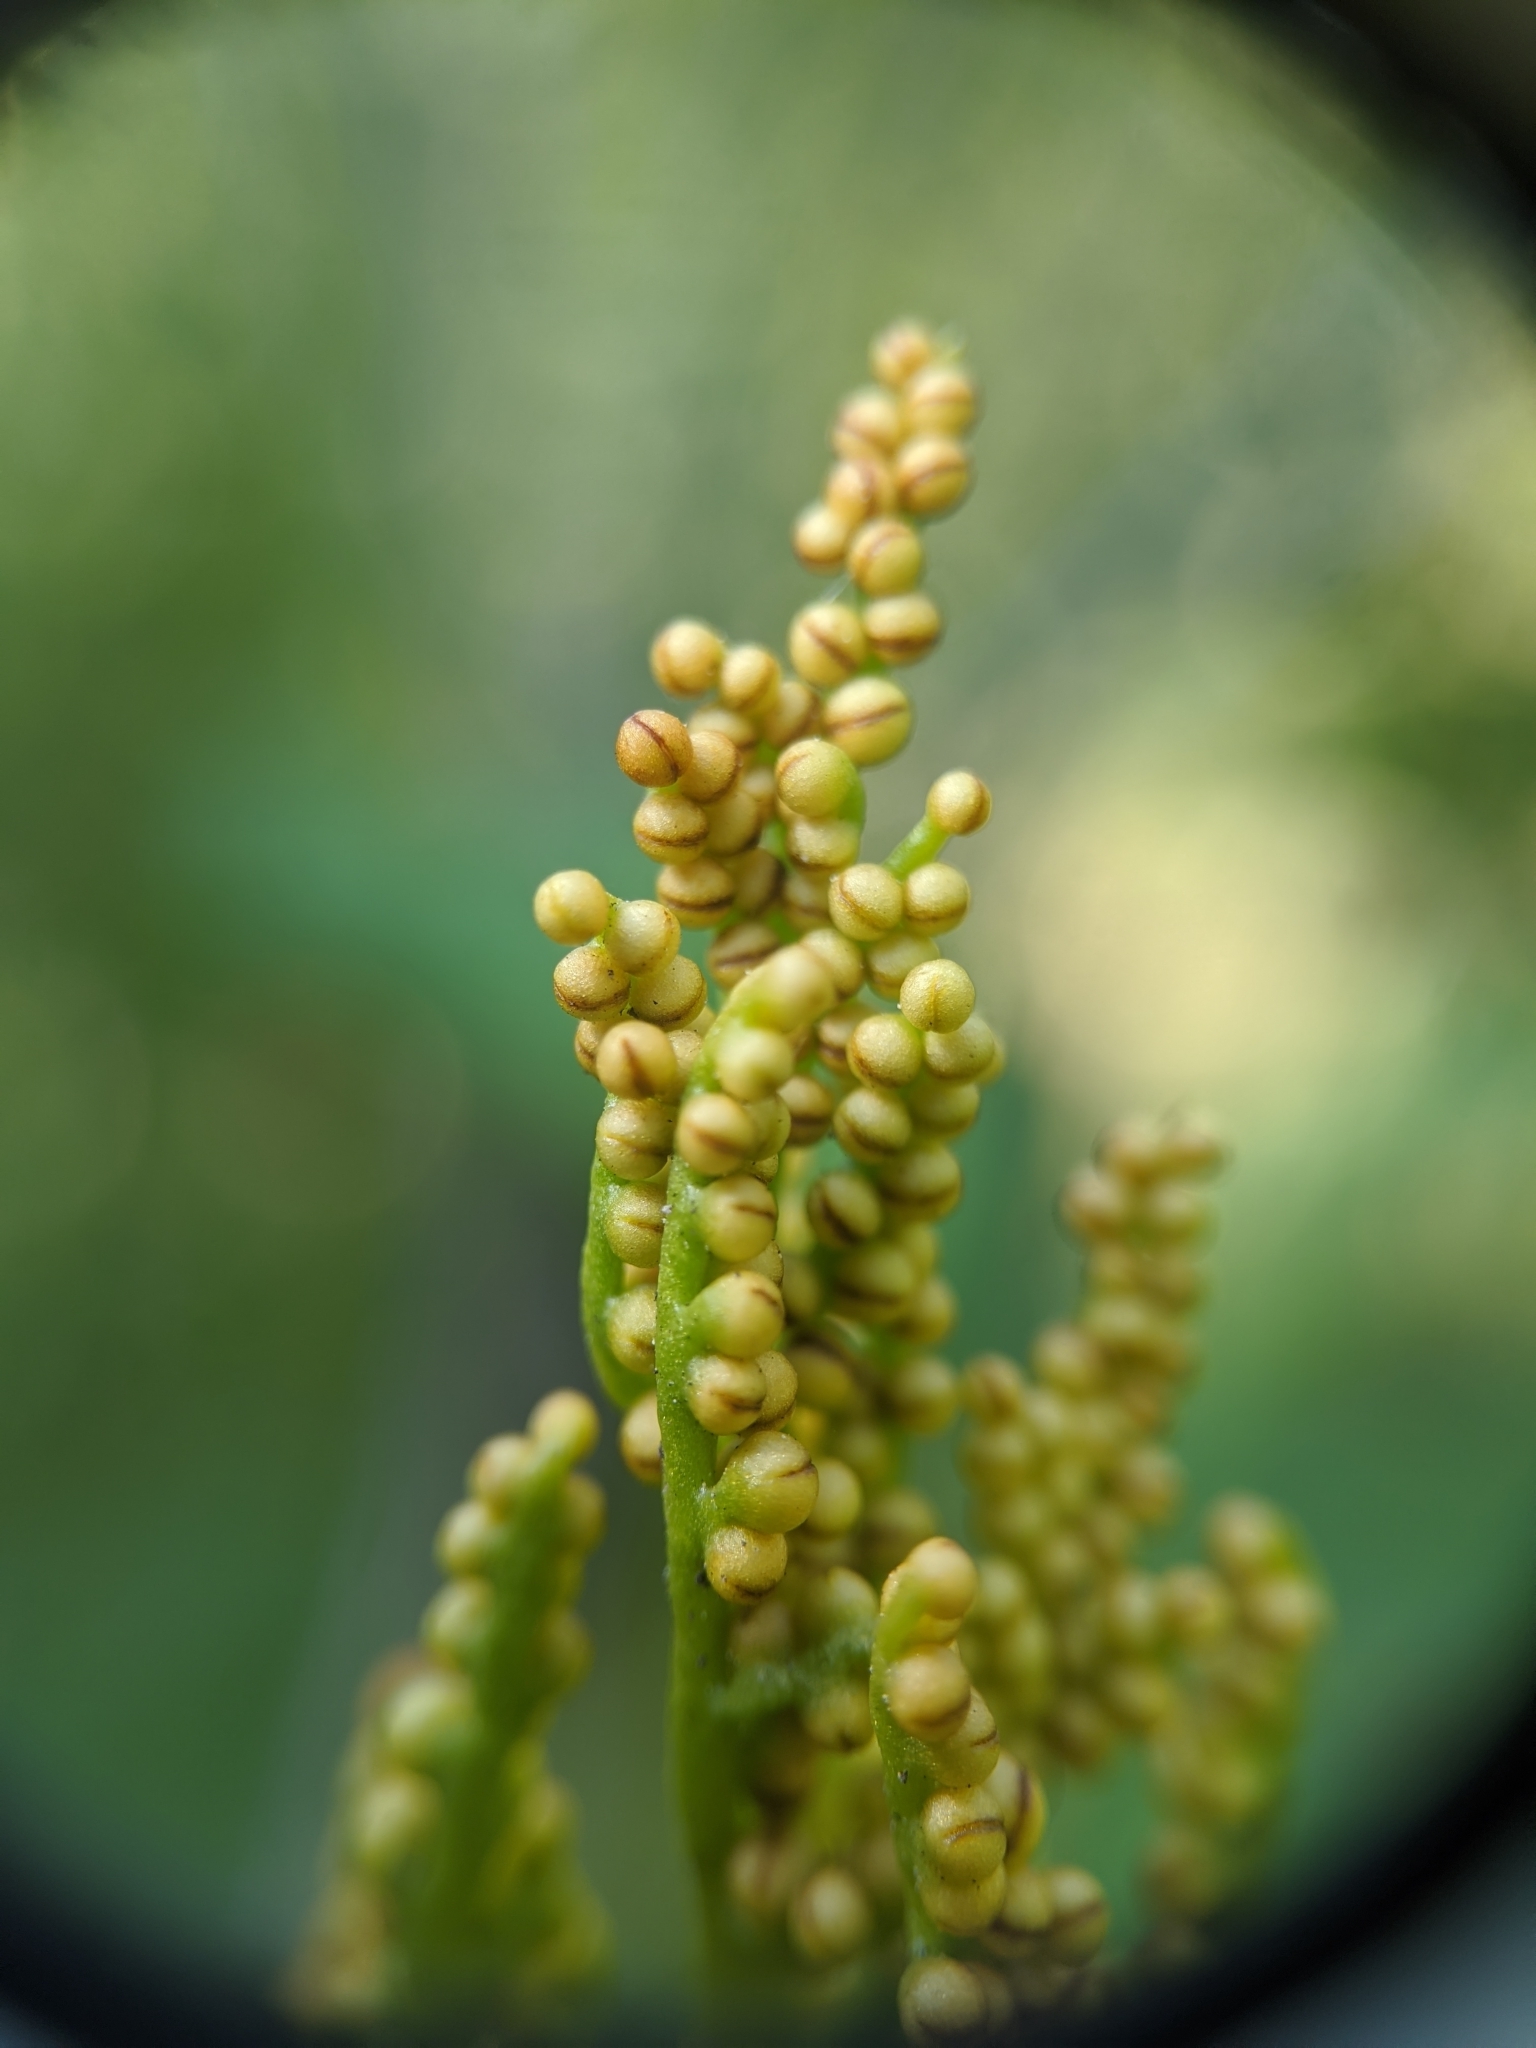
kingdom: Plantae
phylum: Tracheophyta
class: Polypodiopsida
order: Ophioglossales
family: Ophioglossaceae
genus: Sceptridium
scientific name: Sceptridium multifidum
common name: Leathery grape fern
